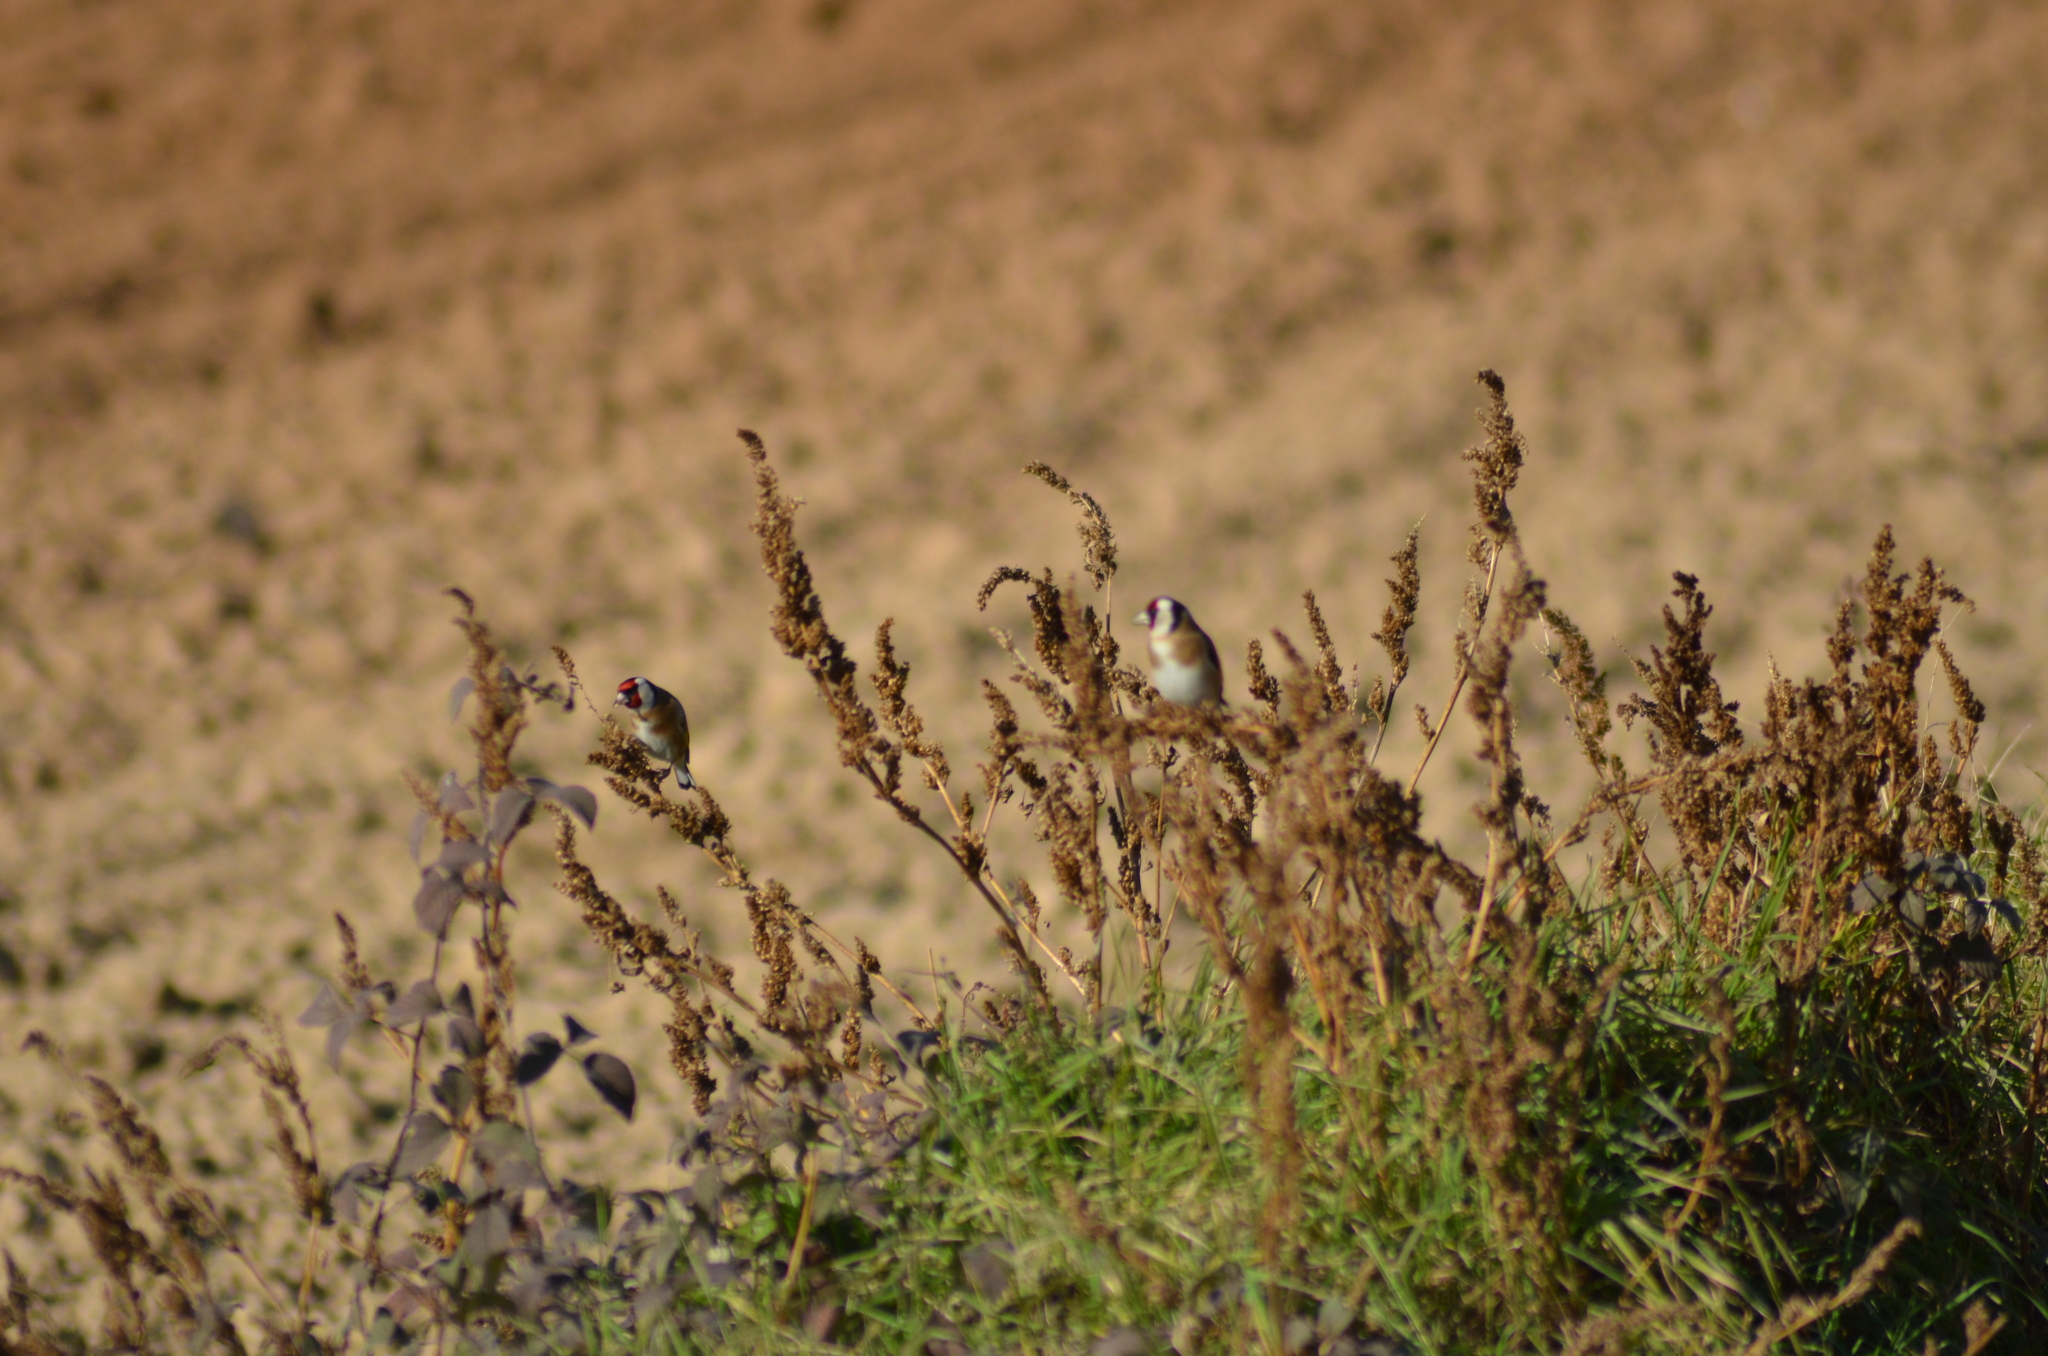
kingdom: Animalia
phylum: Chordata
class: Aves
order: Passeriformes
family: Fringillidae
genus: Carduelis
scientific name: Carduelis carduelis
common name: European goldfinch
